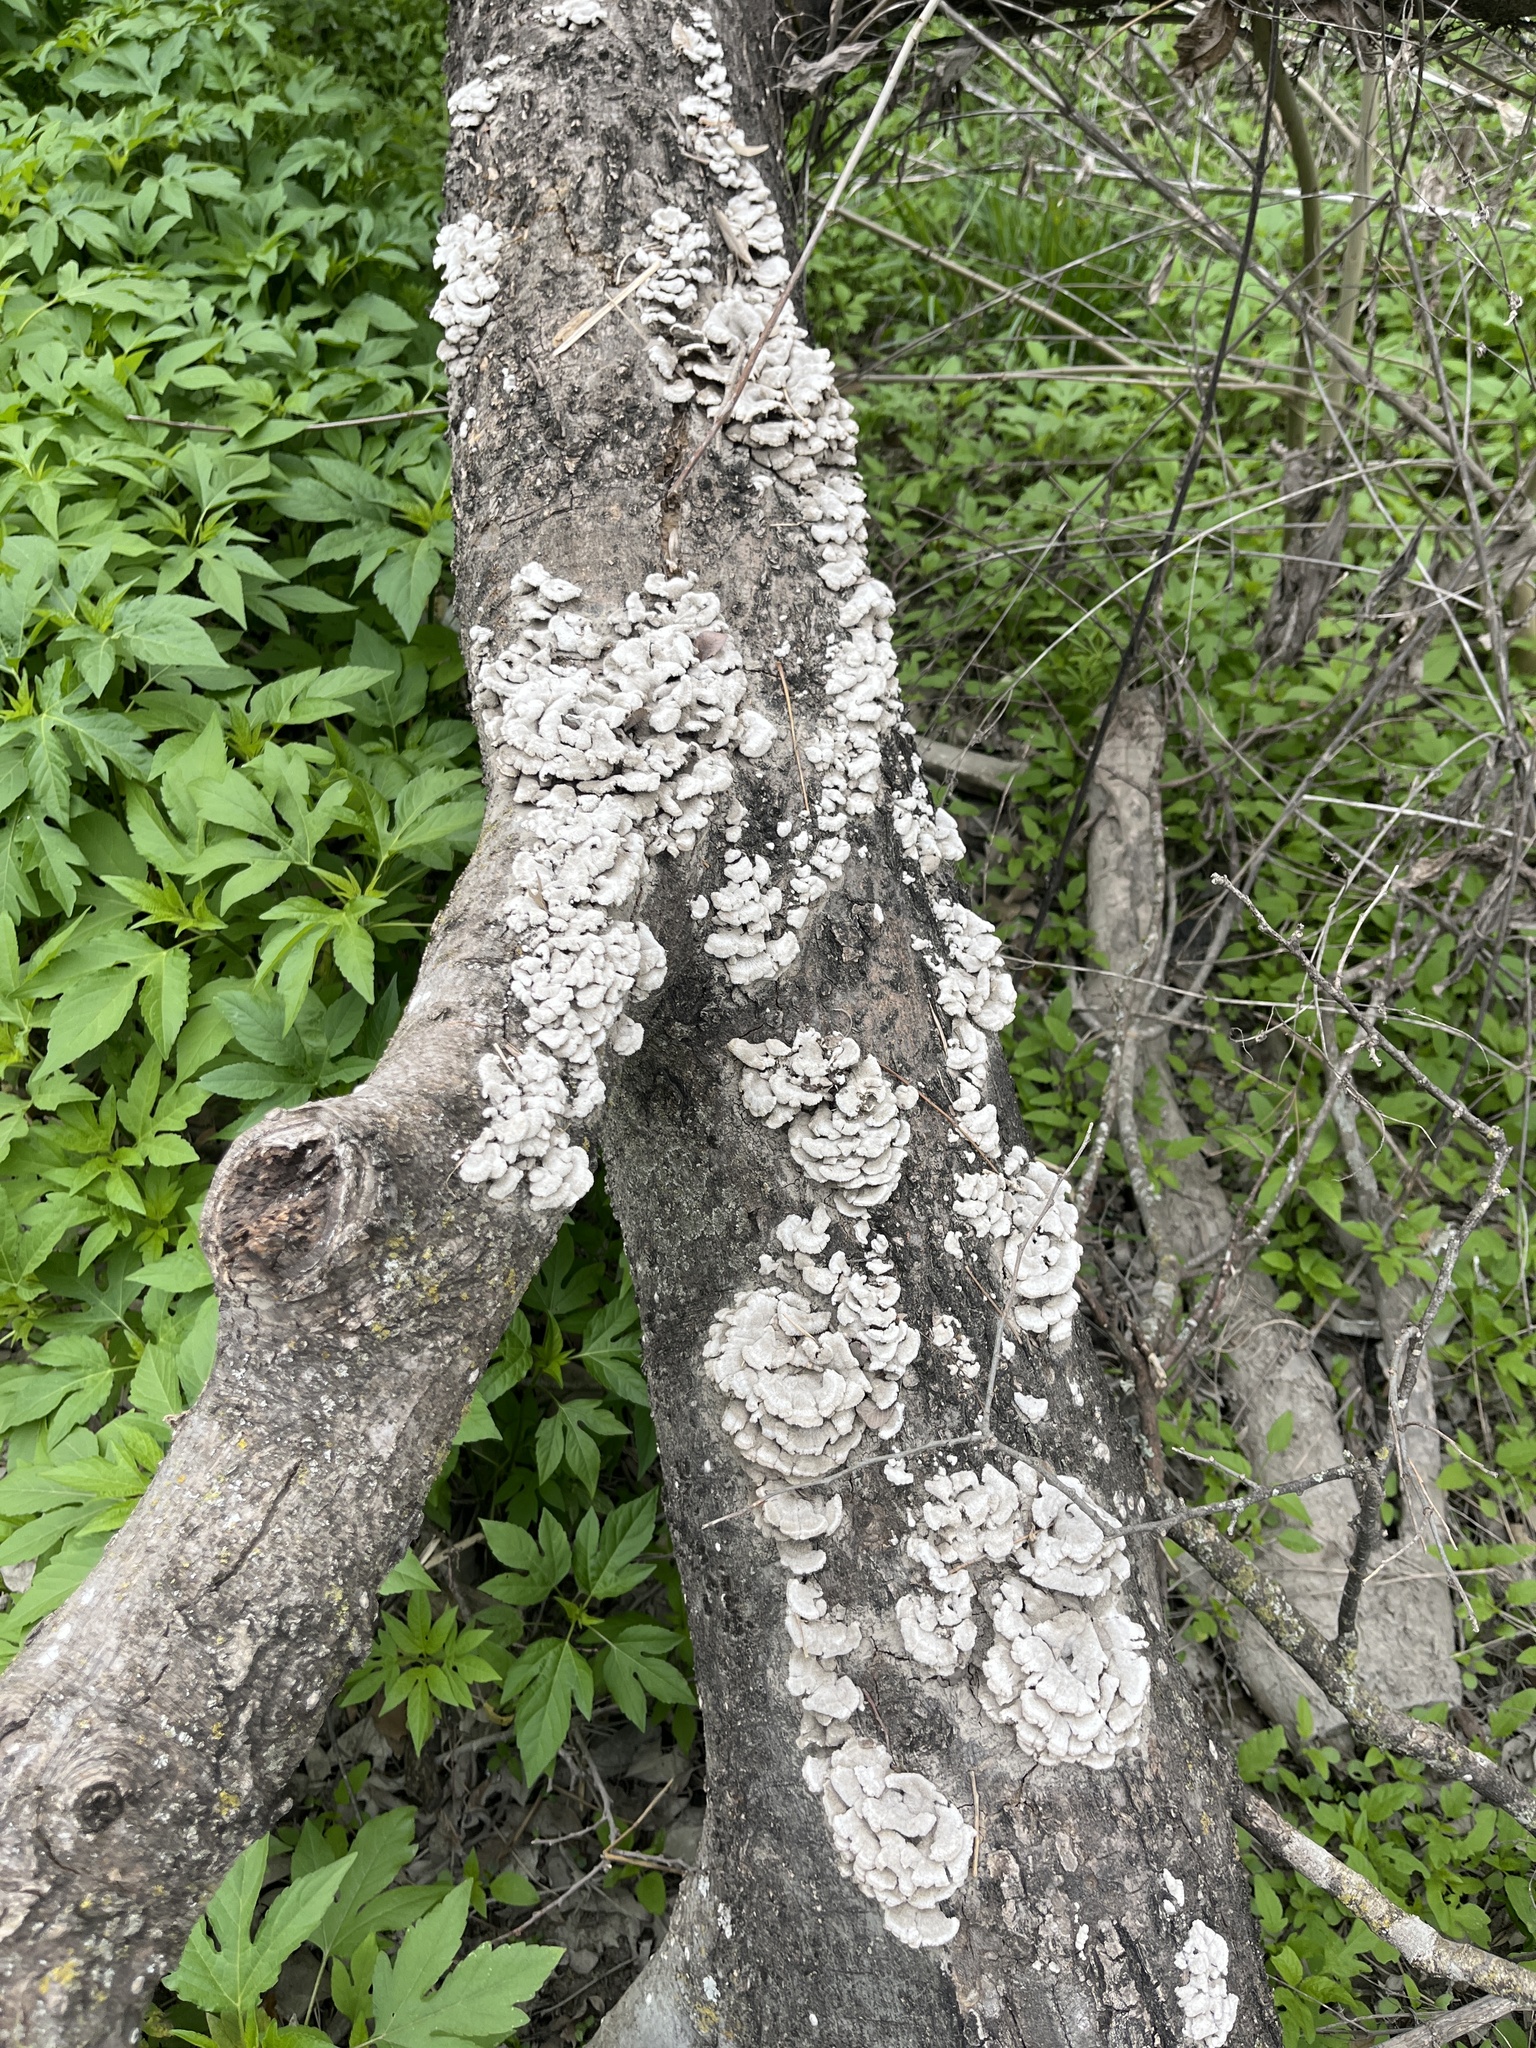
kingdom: Fungi
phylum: Basidiomycota
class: Agaricomycetes
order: Agaricales
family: Schizophyllaceae
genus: Schizophyllum
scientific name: Schizophyllum commune
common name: Common porecrust
